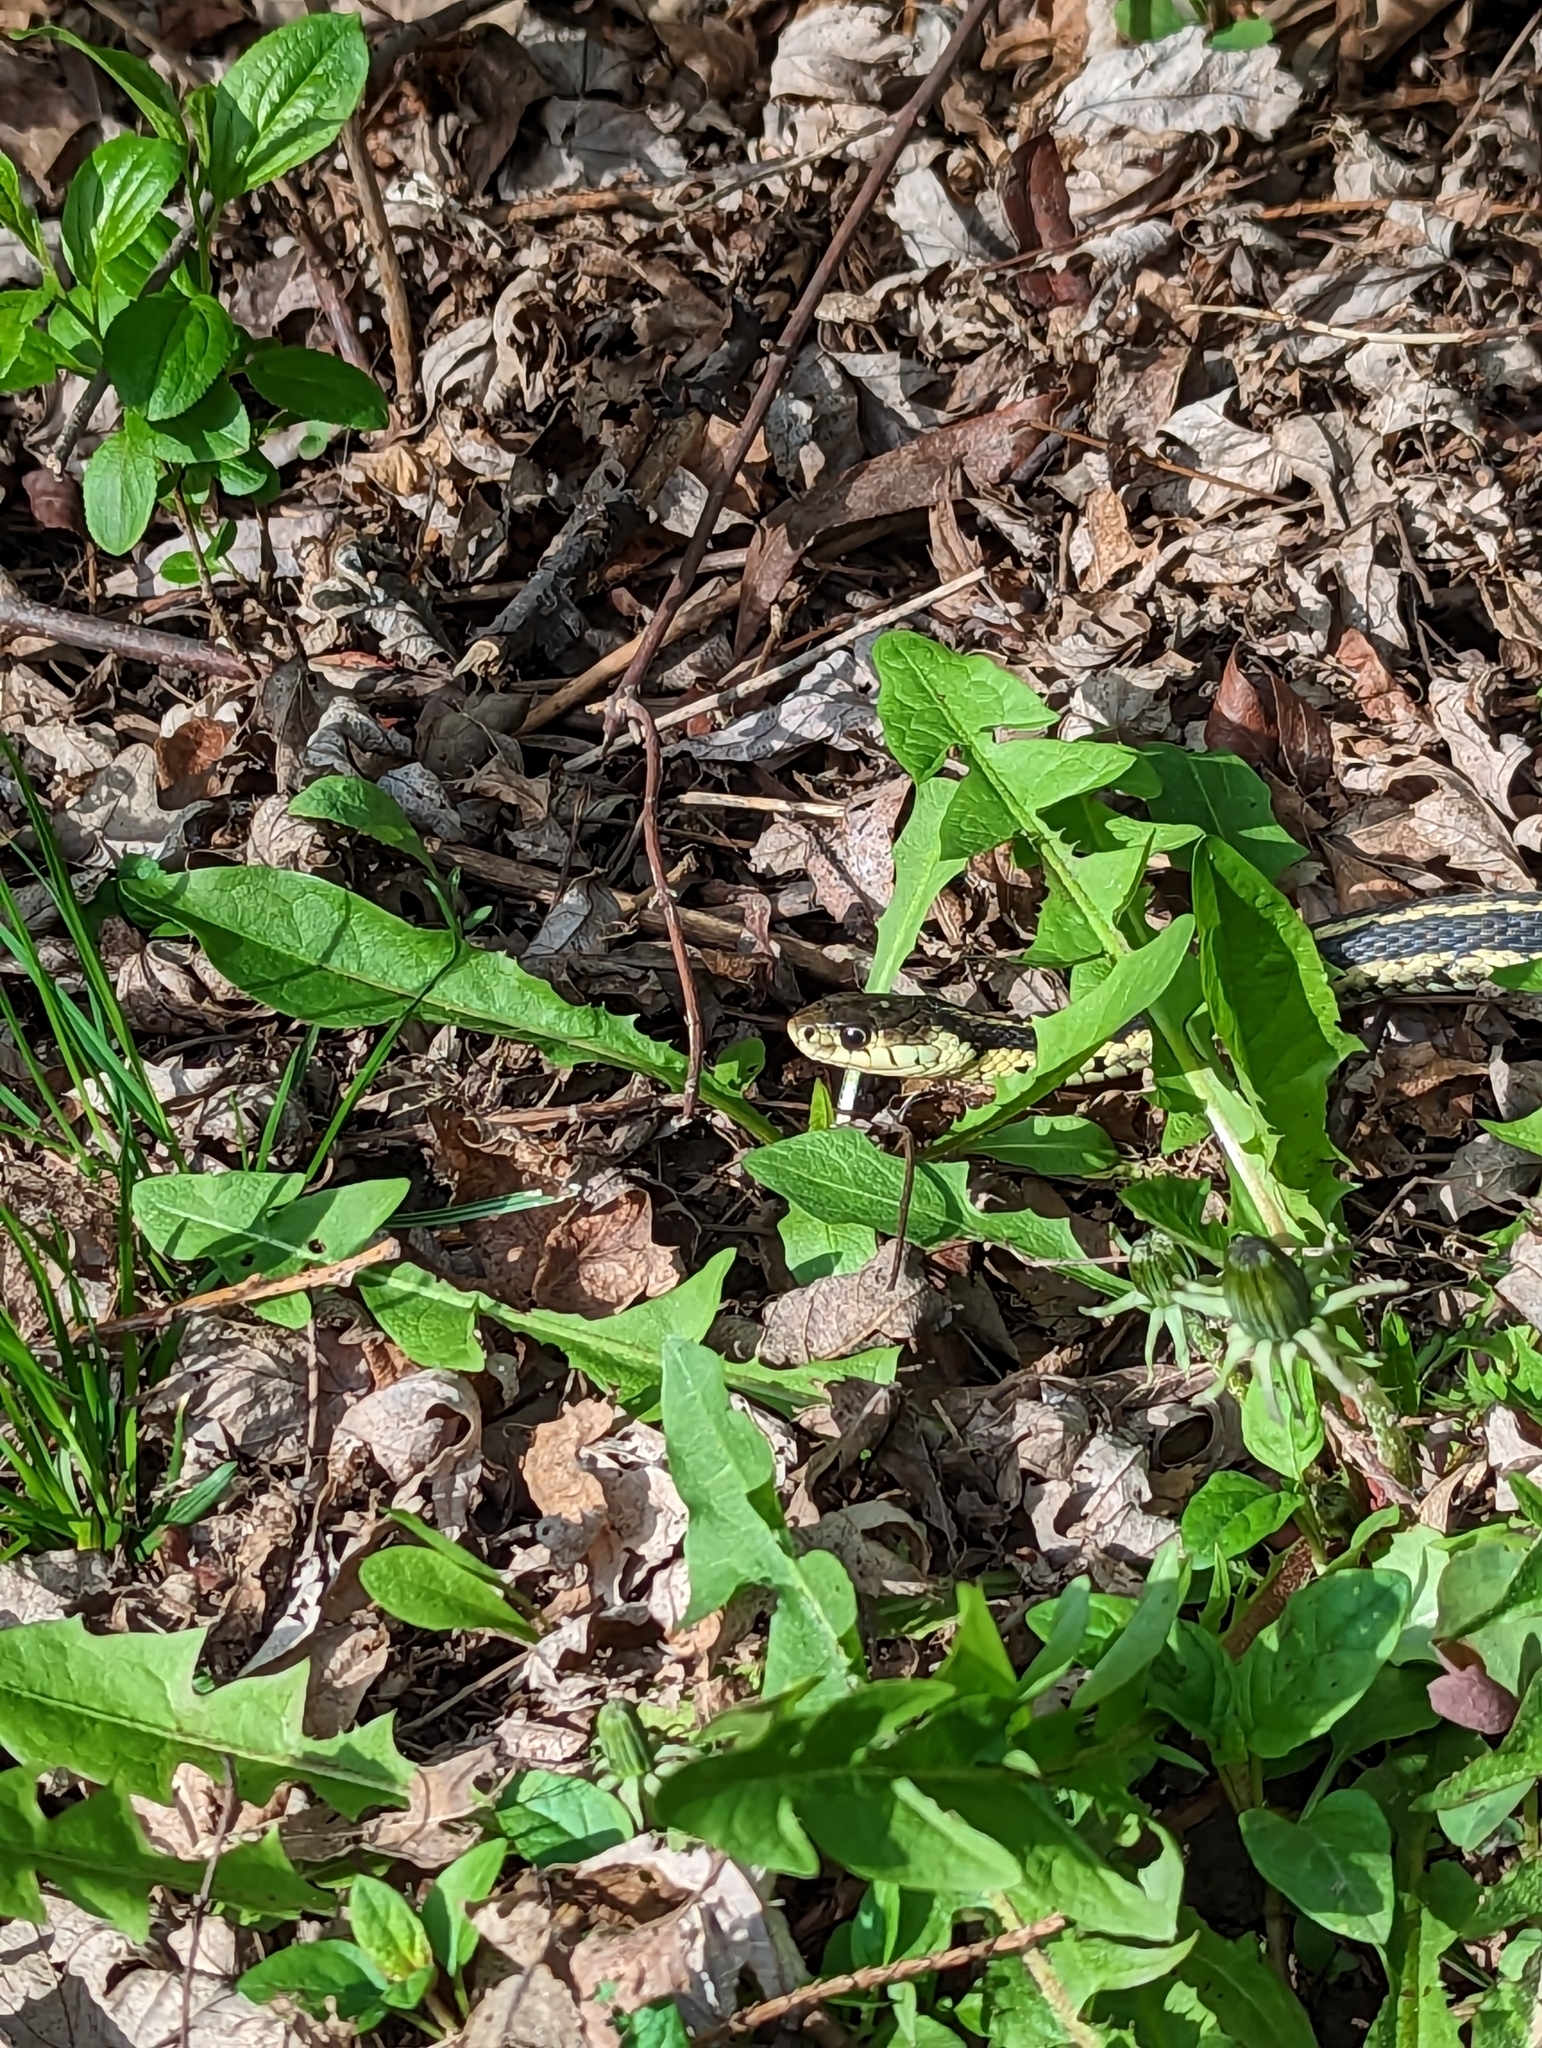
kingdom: Animalia
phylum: Chordata
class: Squamata
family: Colubridae
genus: Thamnophis
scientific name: Thamnophis sirtalis
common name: Common garter snake
